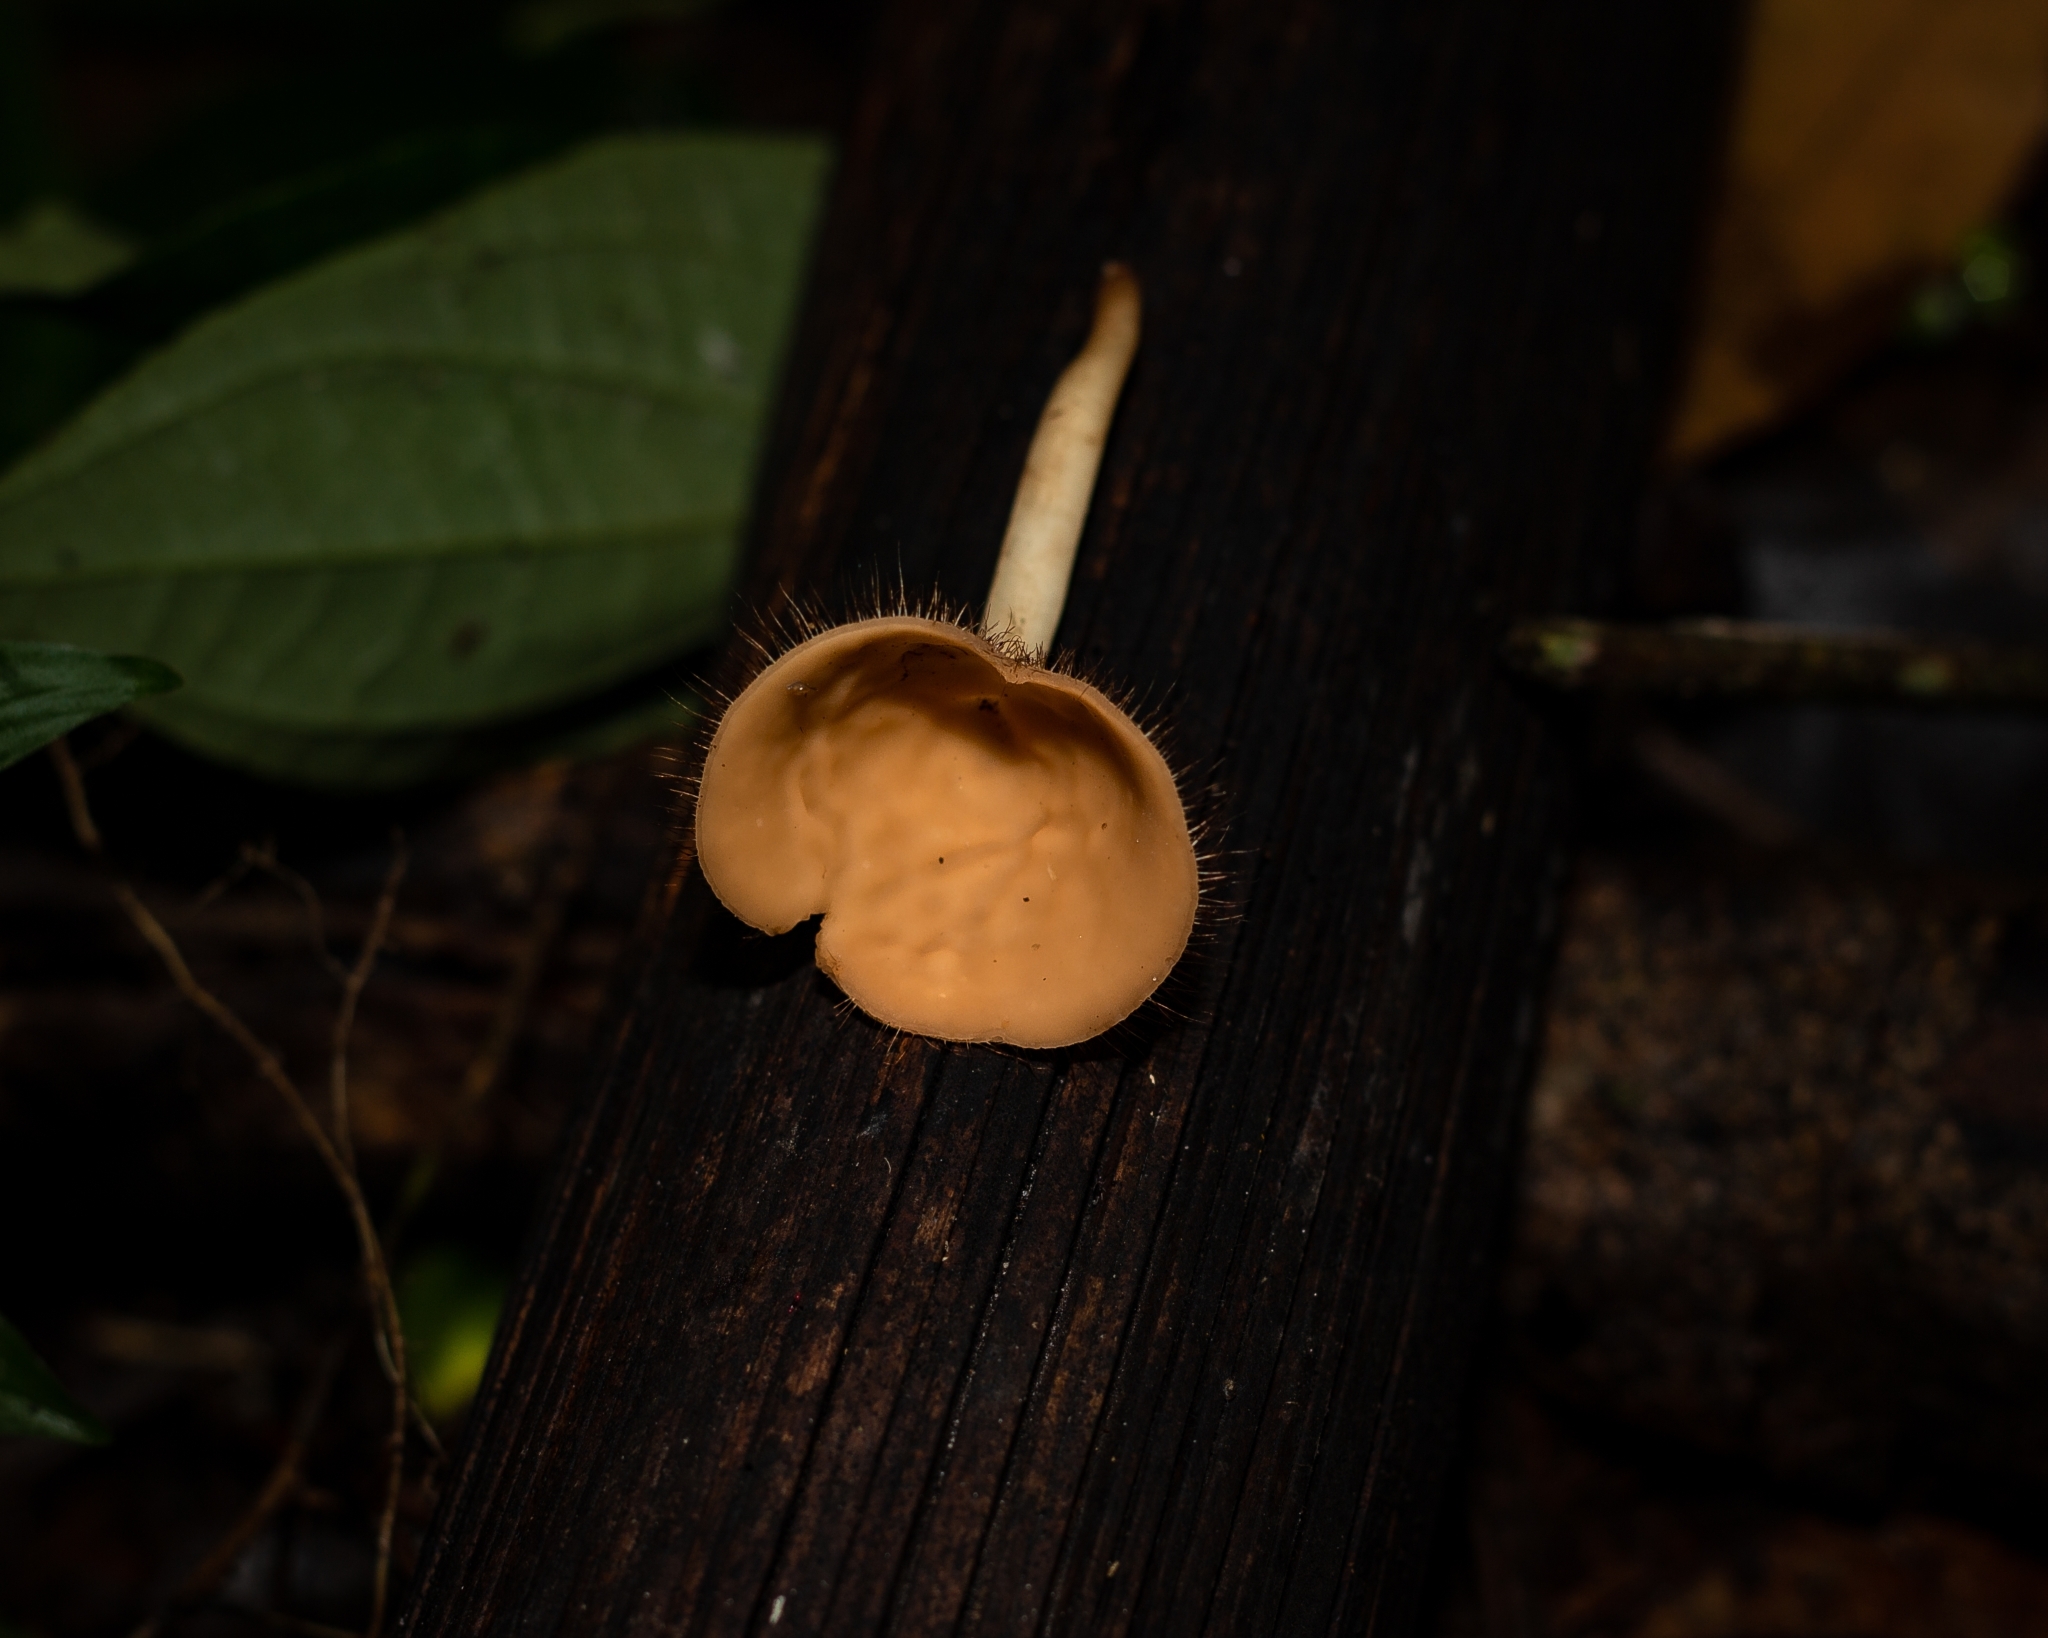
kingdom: Fungi
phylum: Ascomycota
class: Pezizomycetes
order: Pezizales
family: Sarcoscyphaceae
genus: Cookeina
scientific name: Cookeina tricholoma
